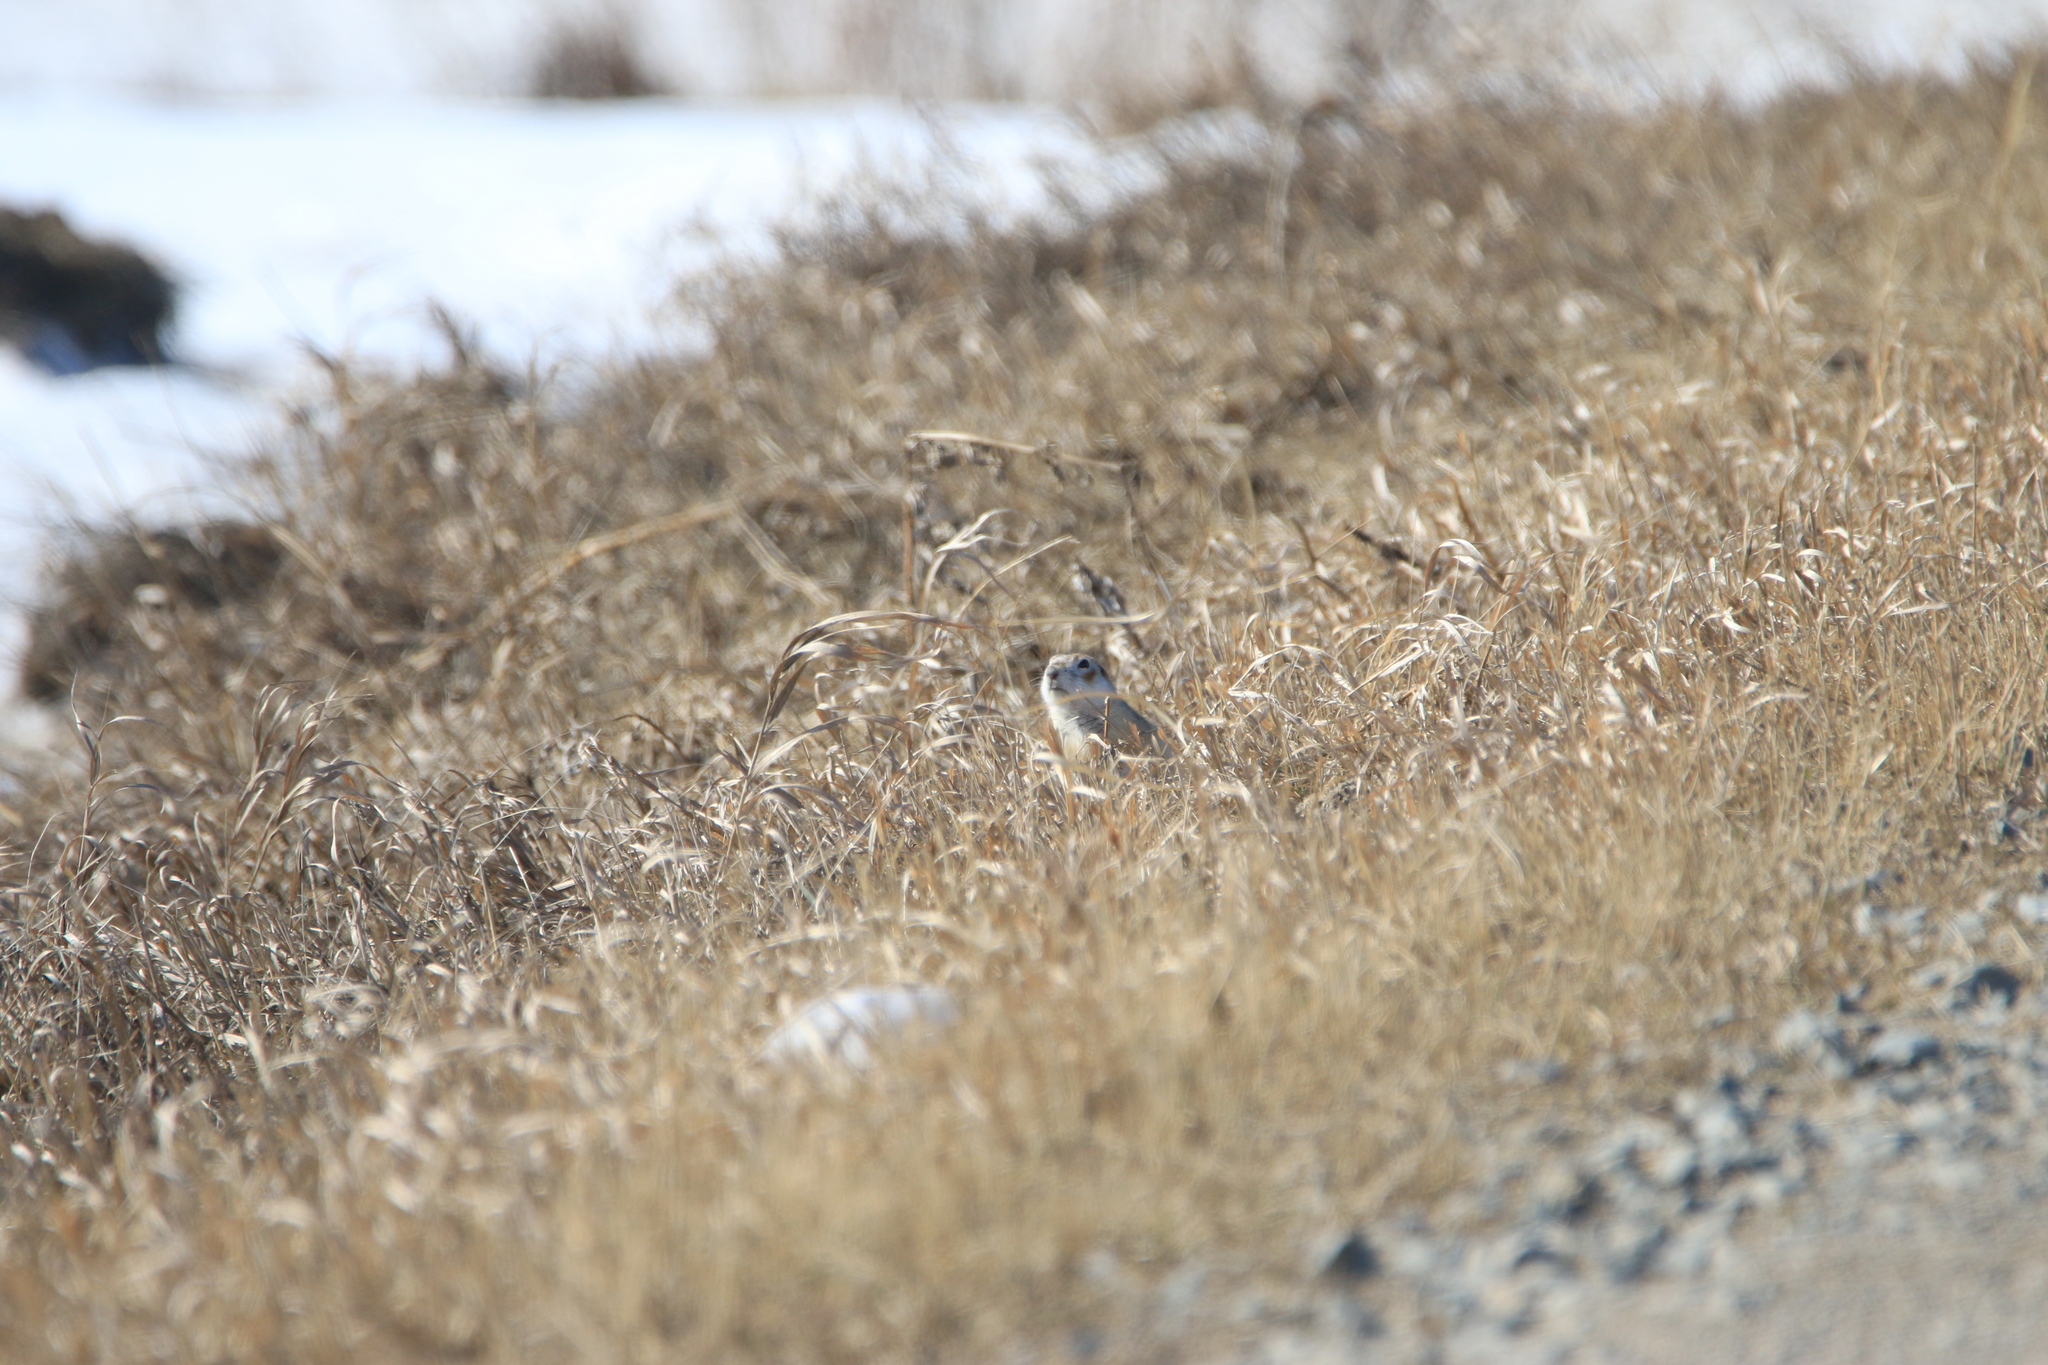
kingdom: Animalia
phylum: Chordata
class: Mammalia
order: Rodentia
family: Sciuridae
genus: Spermophilus
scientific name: Spermophilus erythrogenys
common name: Red-cheeked ground squirrel
